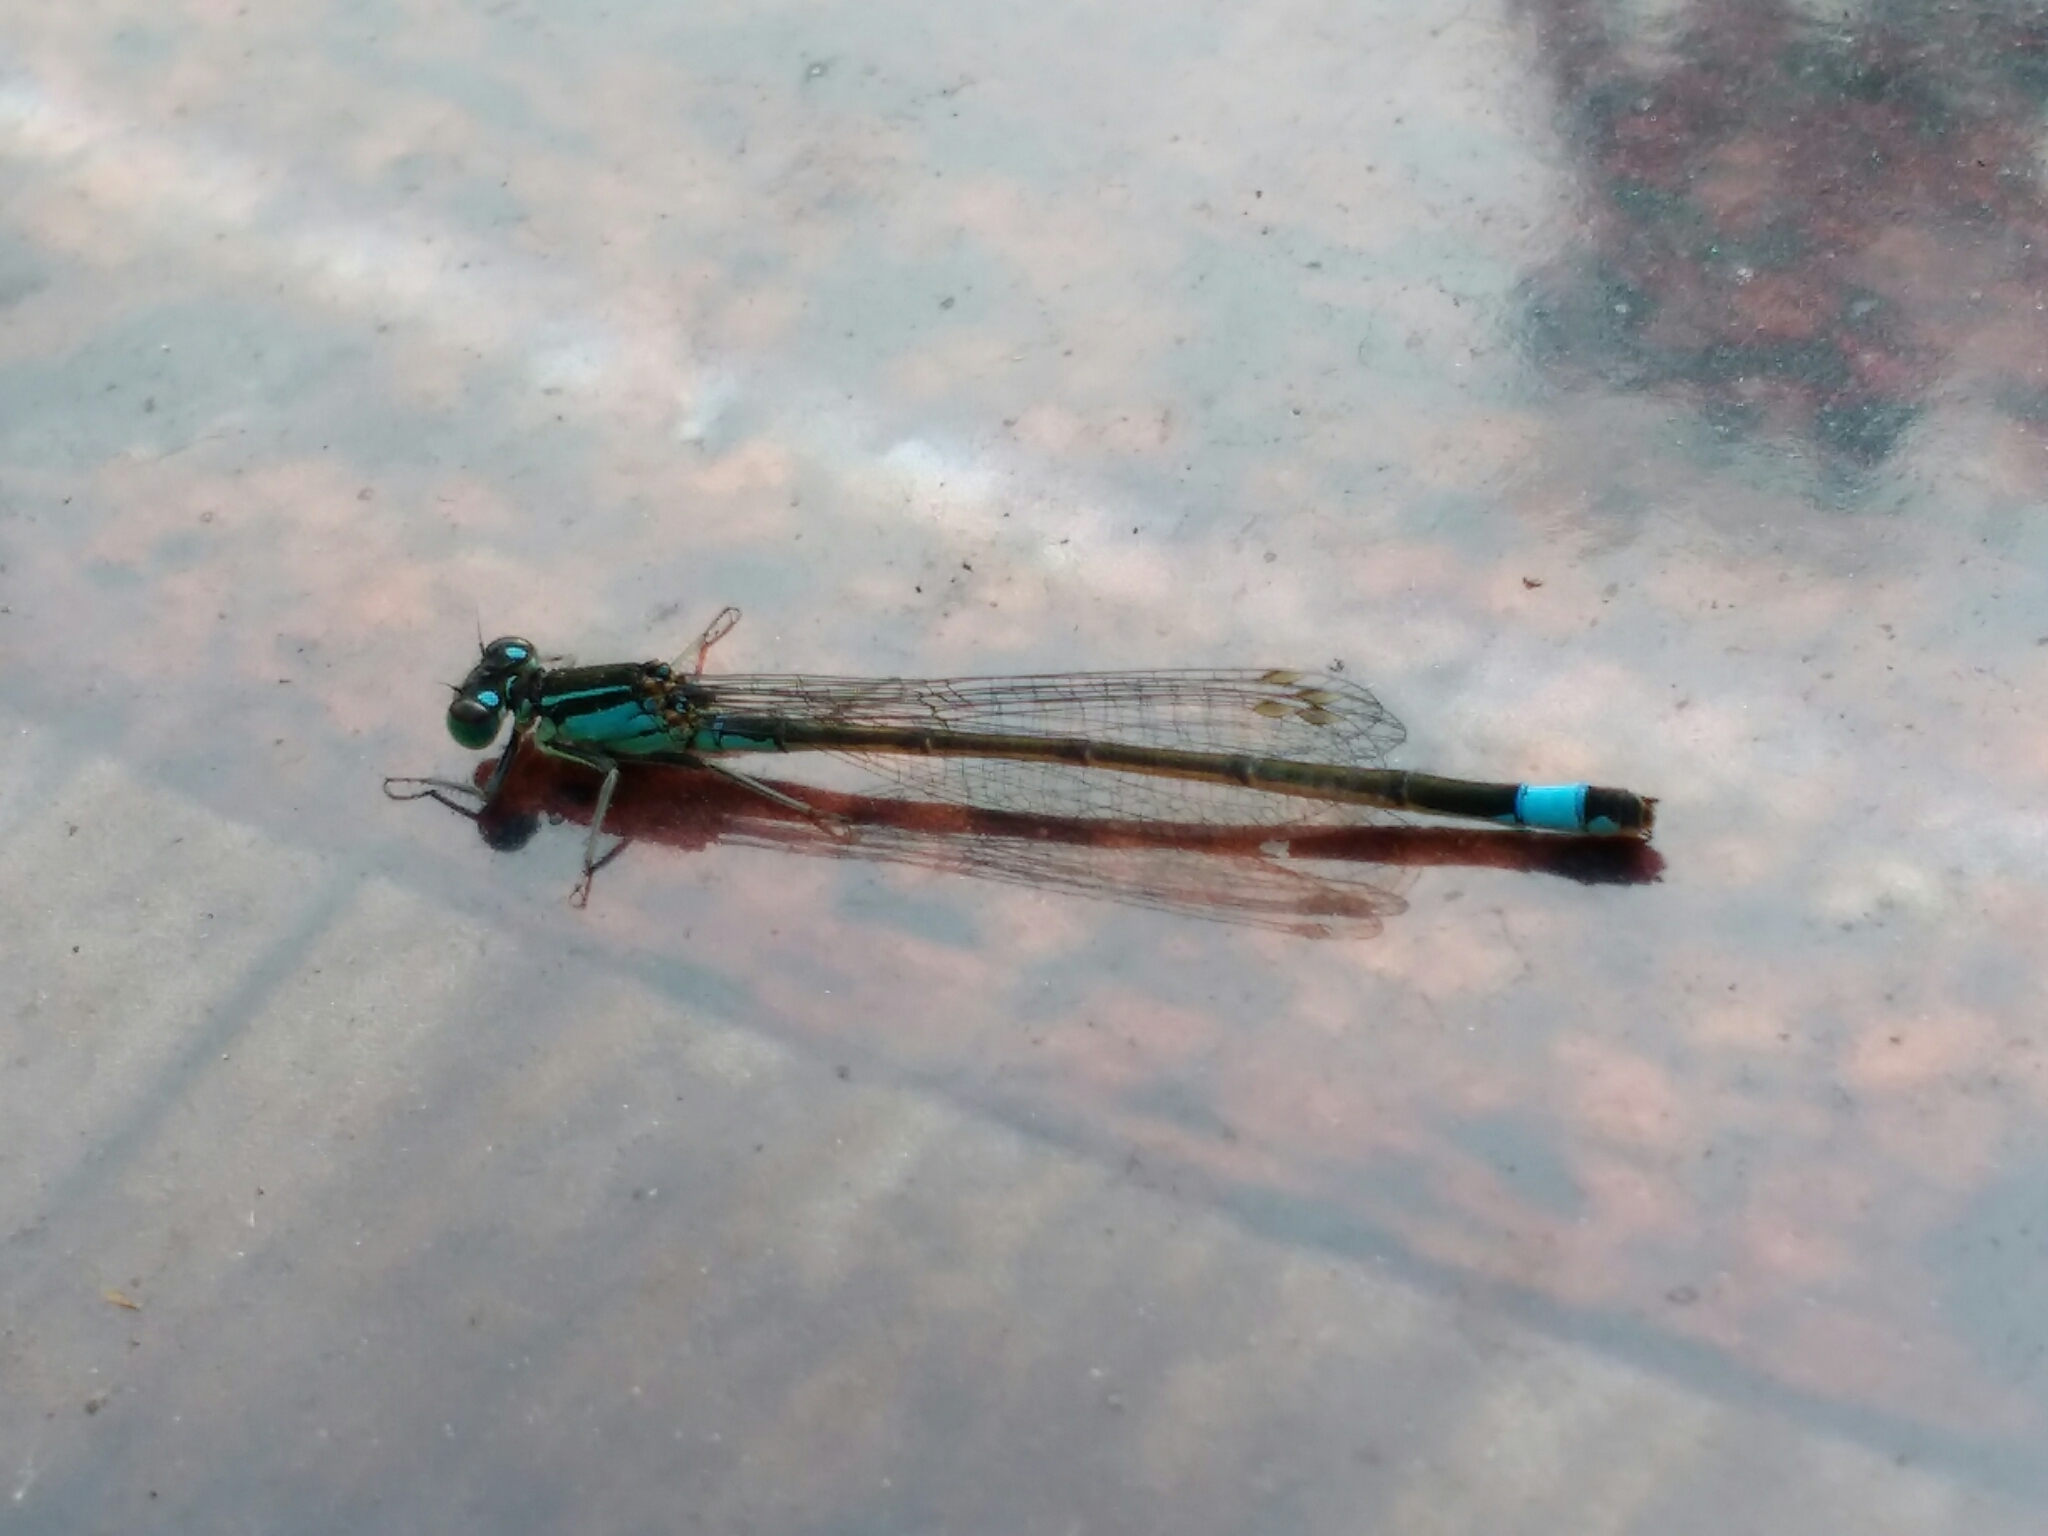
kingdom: Animalia
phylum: Arthropoda
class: Insecta
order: Odonata
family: Coenagrionidae
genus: Ischnura
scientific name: Ischnura elegans
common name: Blue-tailed damselfly
